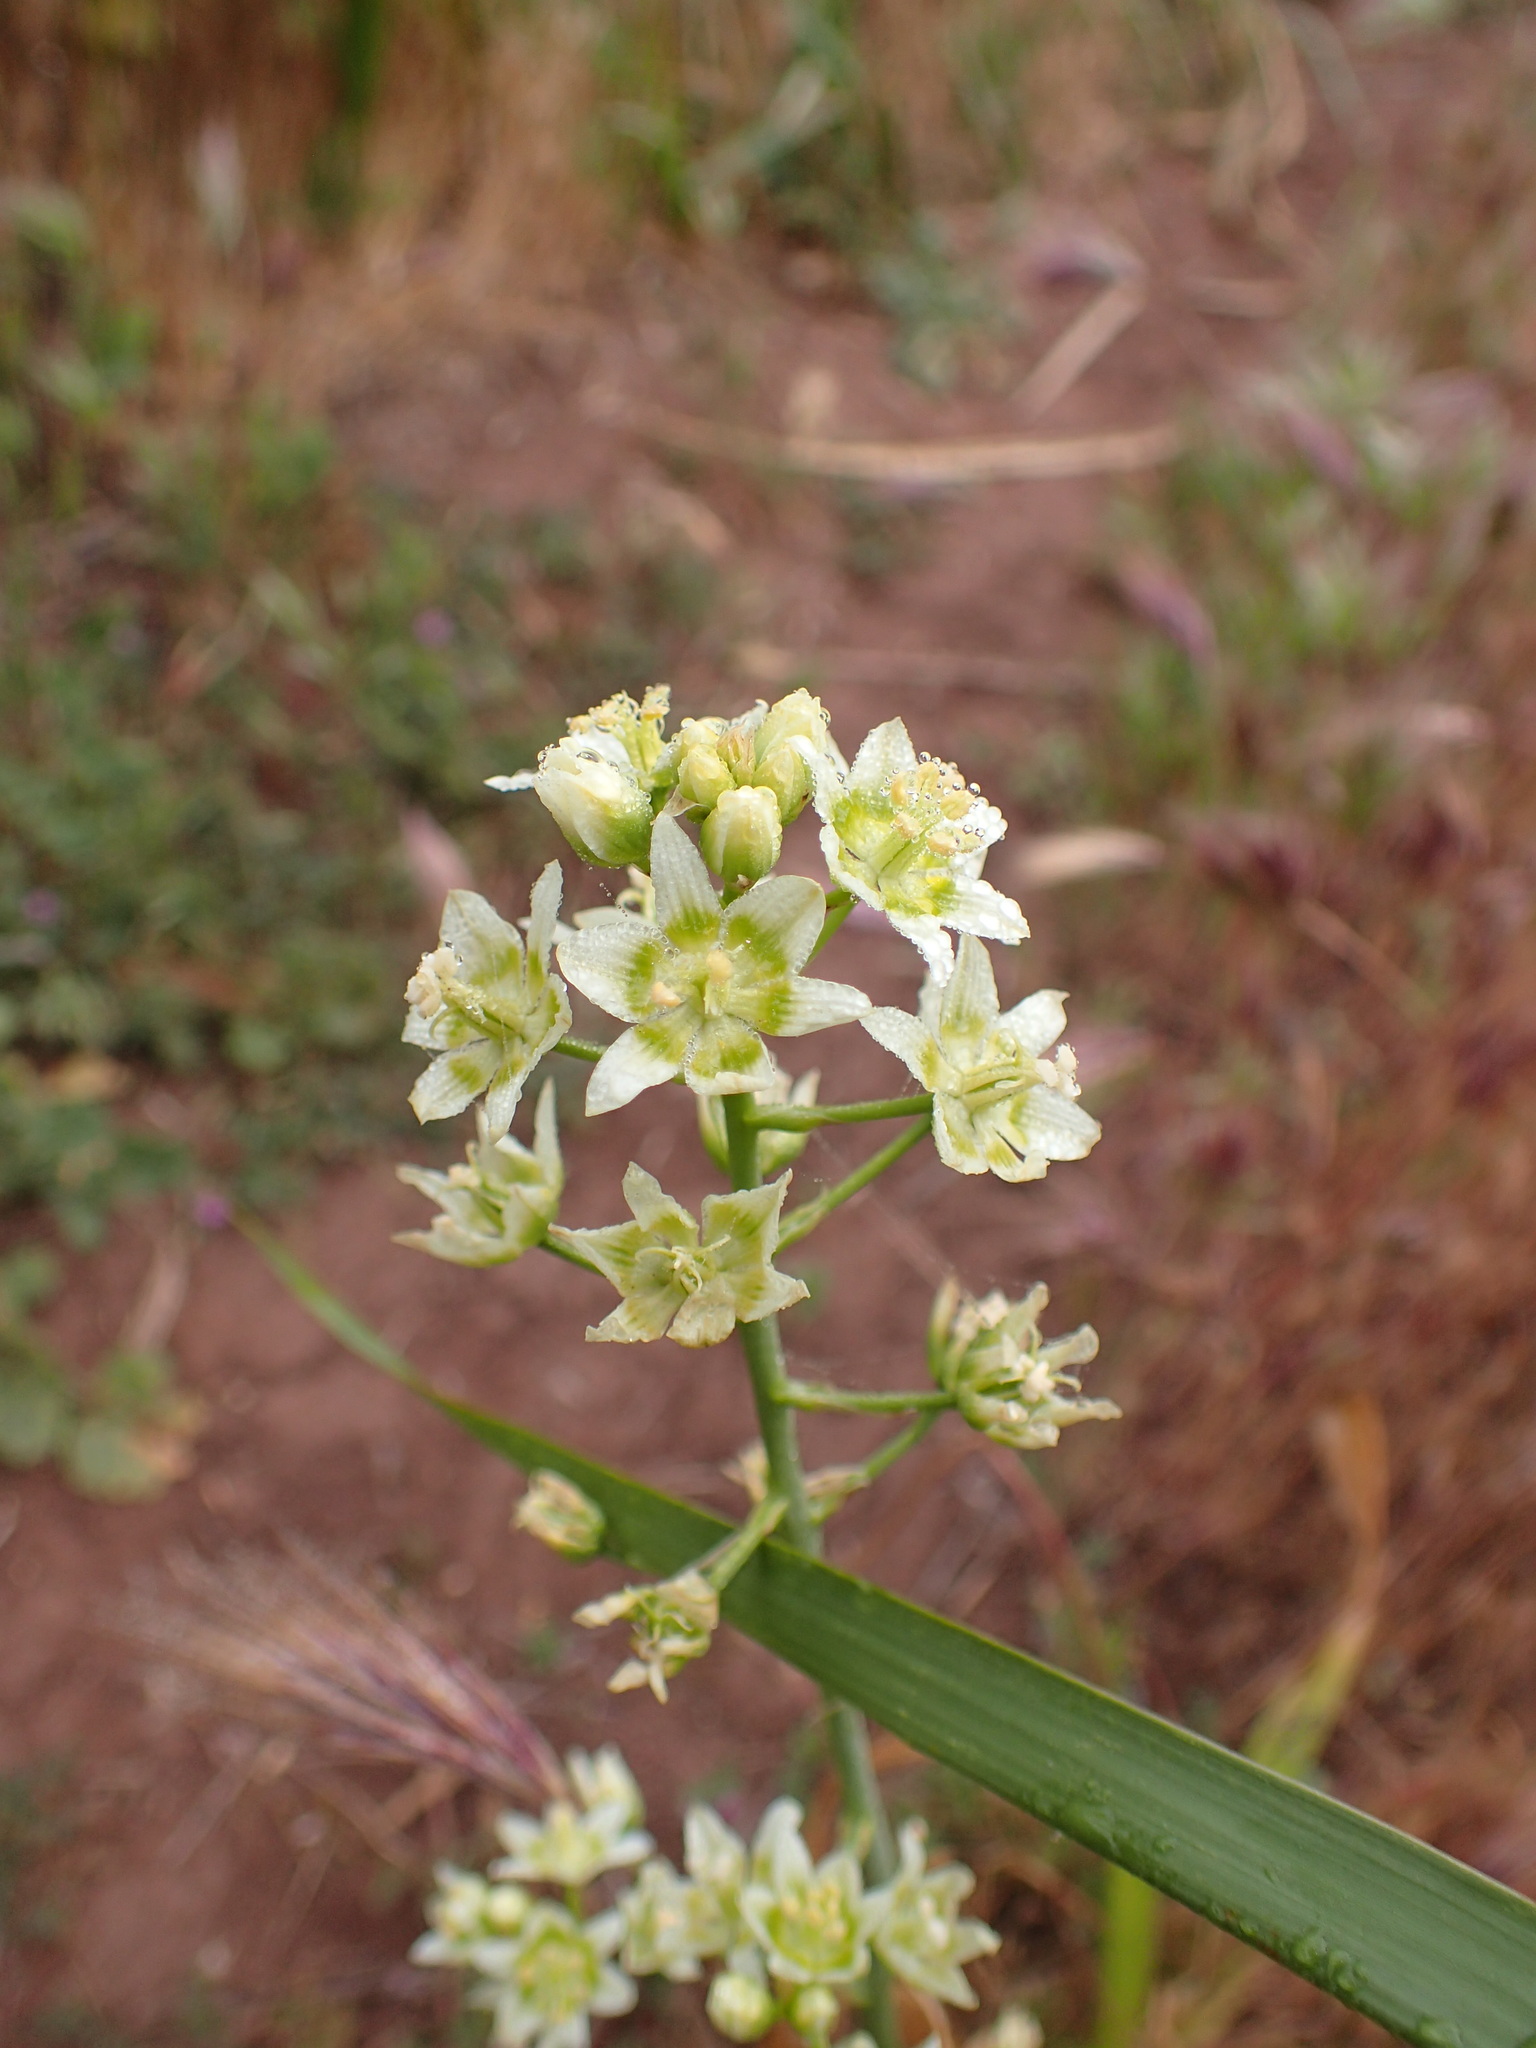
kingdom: Plantae
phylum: Tracheophyta
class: Liliopsida
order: Liliales
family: Melanthiaceae
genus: Toxicoscordion
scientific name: Toxicoscordion fremontii
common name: Fremont's death camas
